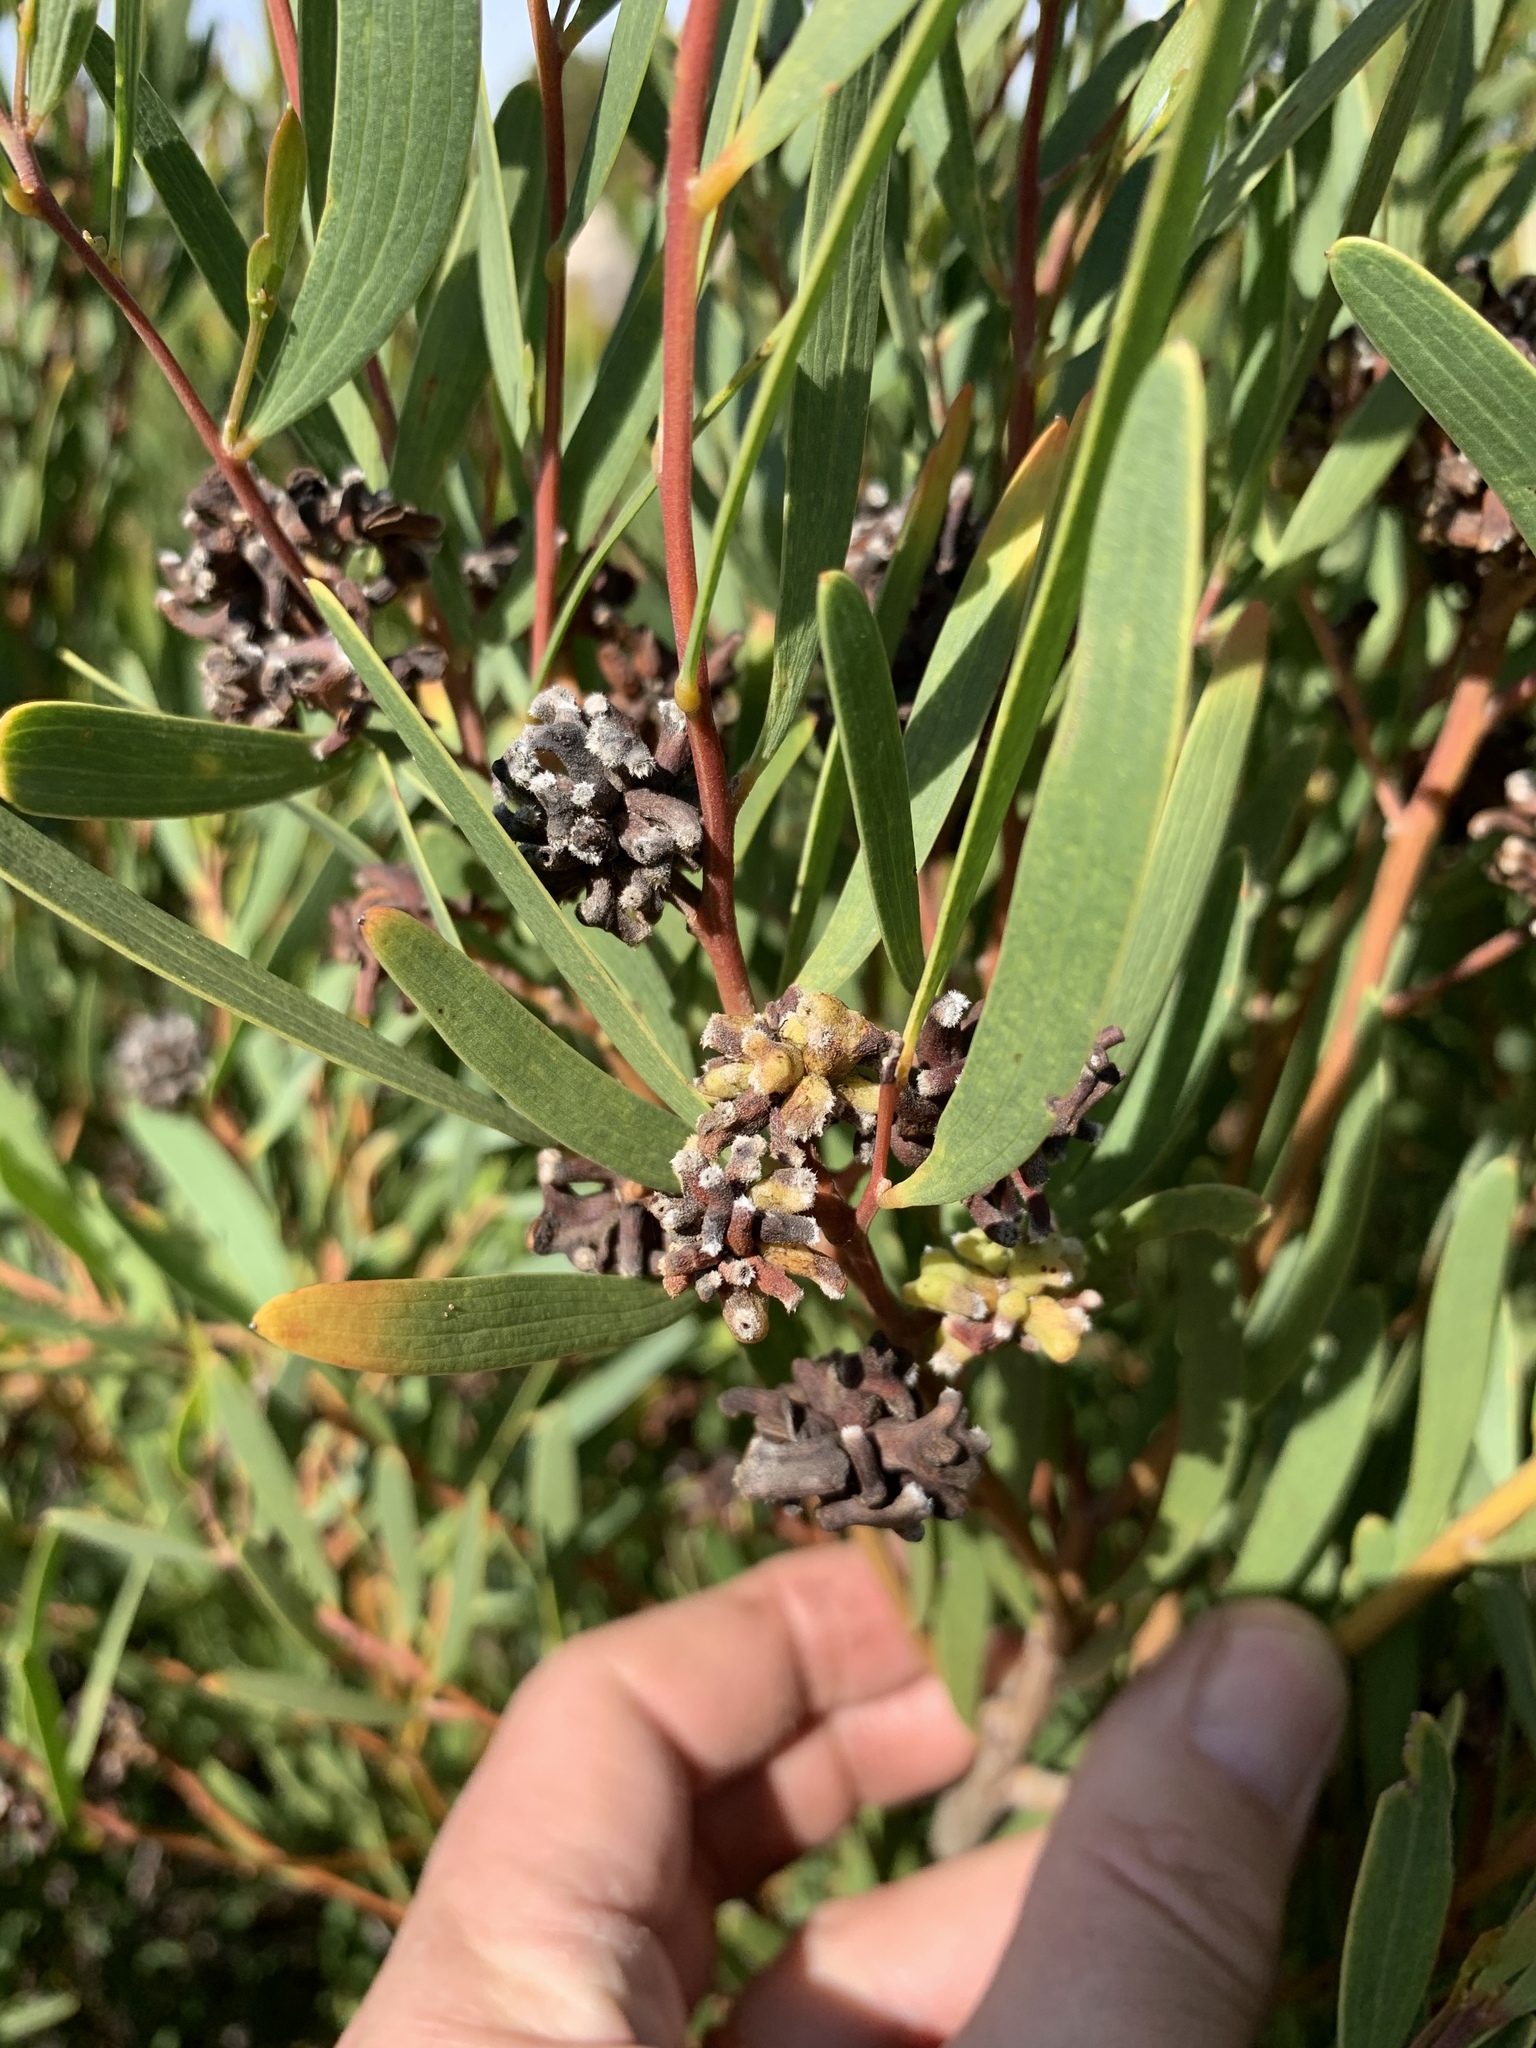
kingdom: Animalia
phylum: Arthropoda
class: Insecta
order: Diptera
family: Cecidomyiidae
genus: Dasineura
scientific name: Dasineura dielsi
